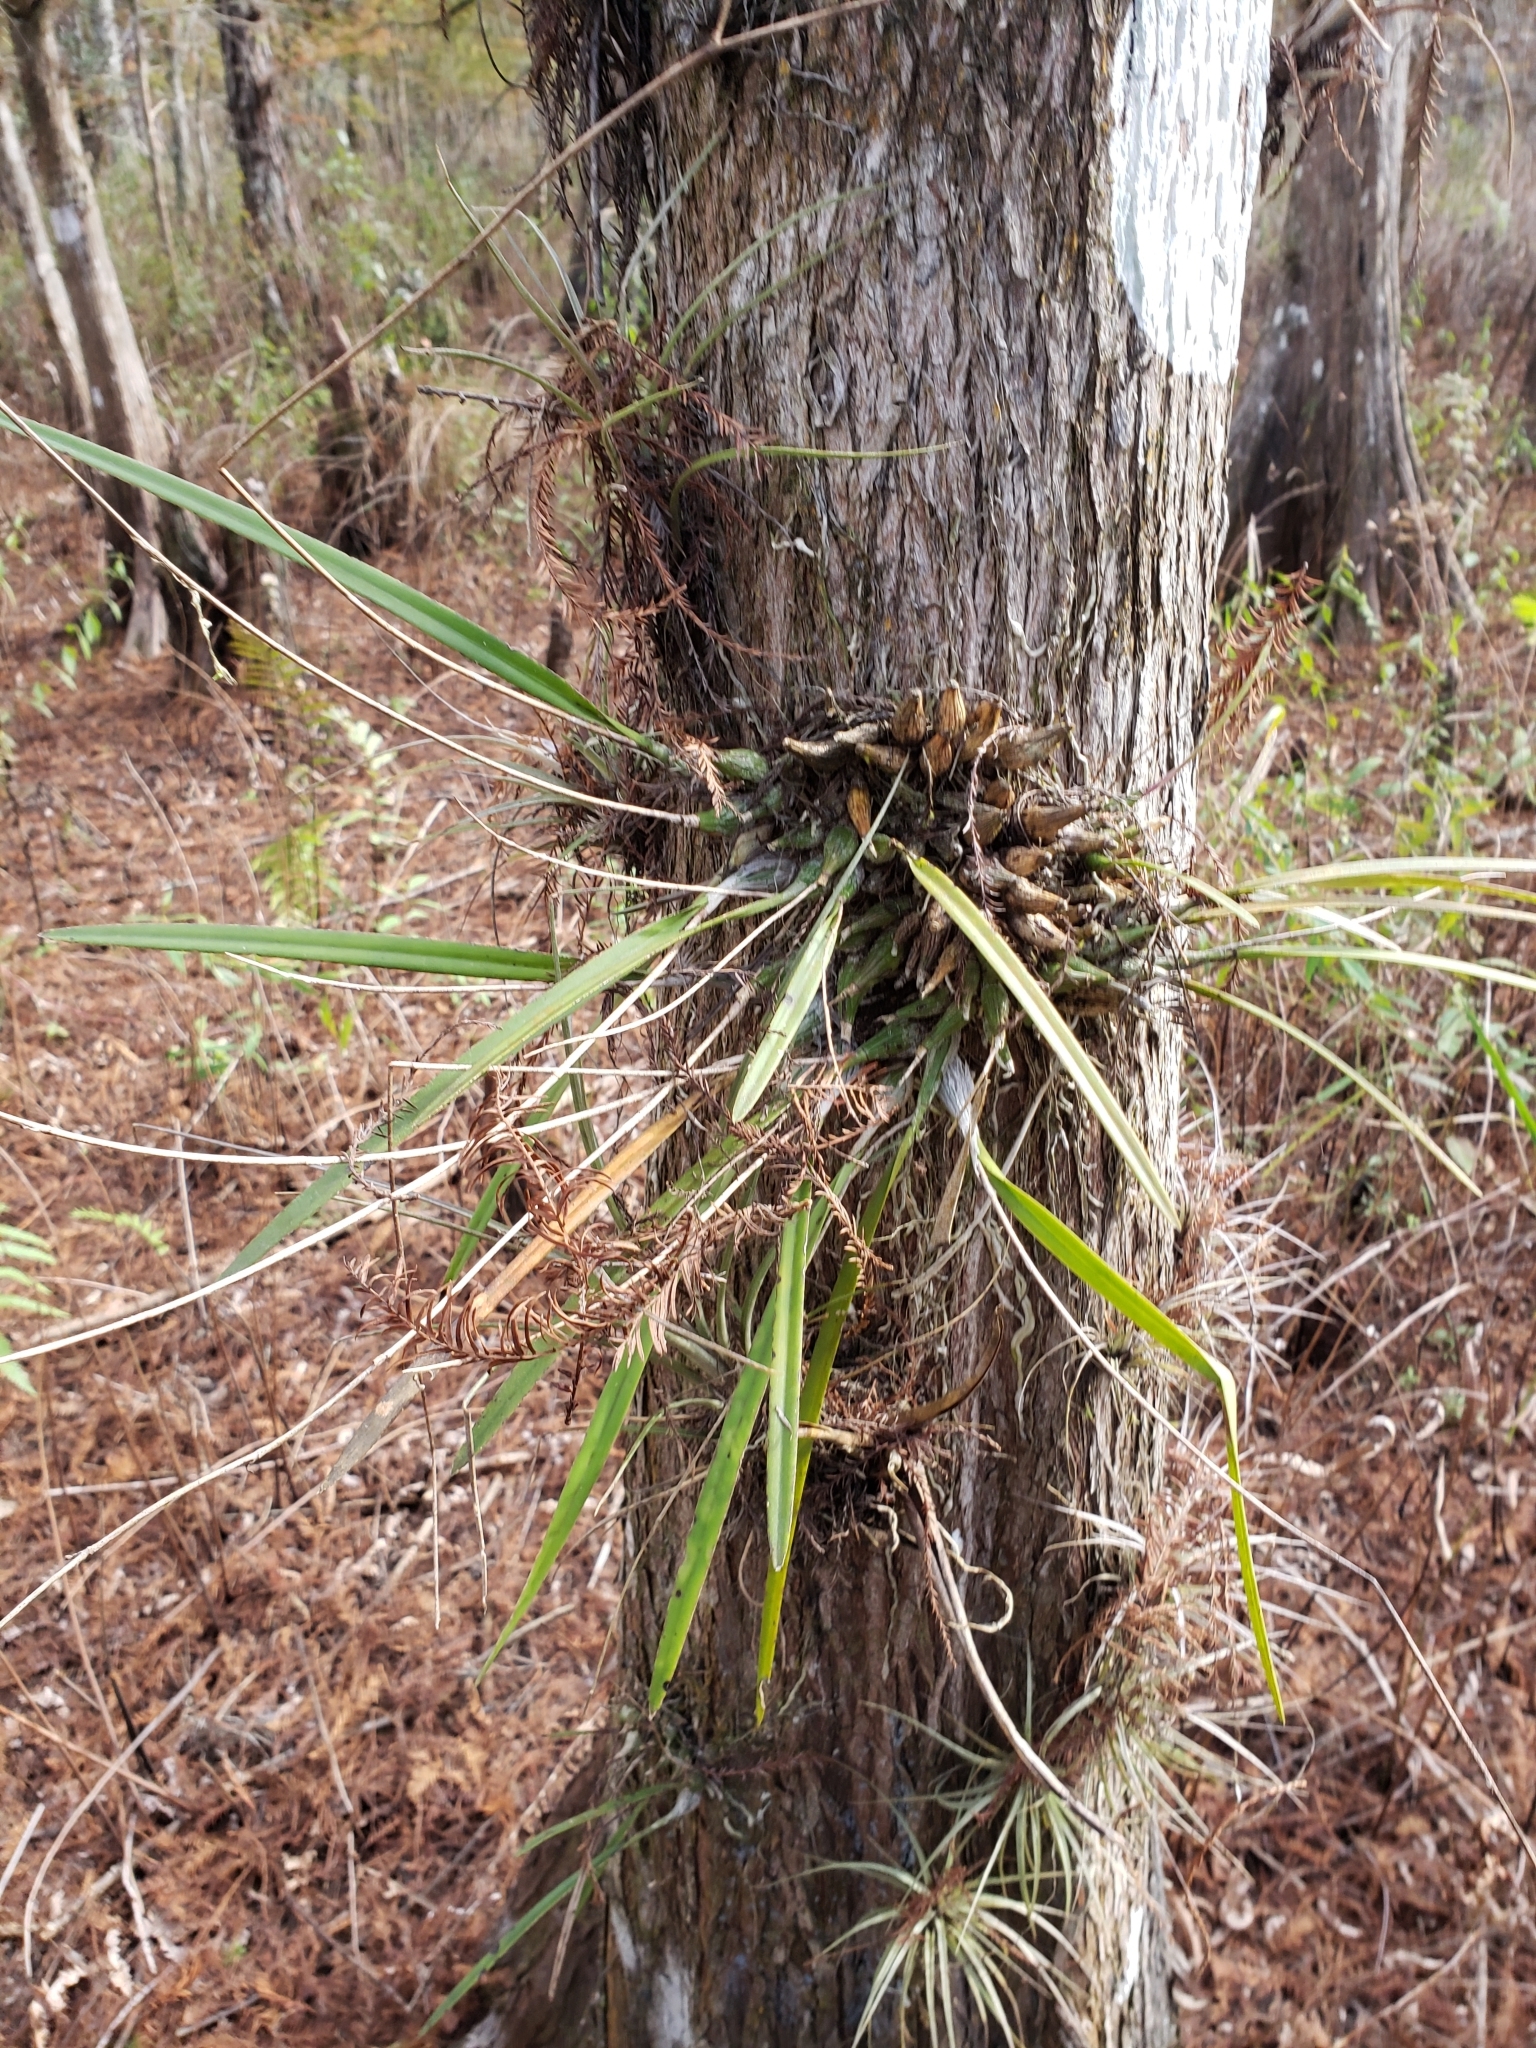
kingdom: Plantae
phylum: Tracheophyta
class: Liliopsida
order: Asparagales
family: Orchidaceae
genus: Encyclia
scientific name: Encyclia tampensis
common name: Florida butterfly orchid
